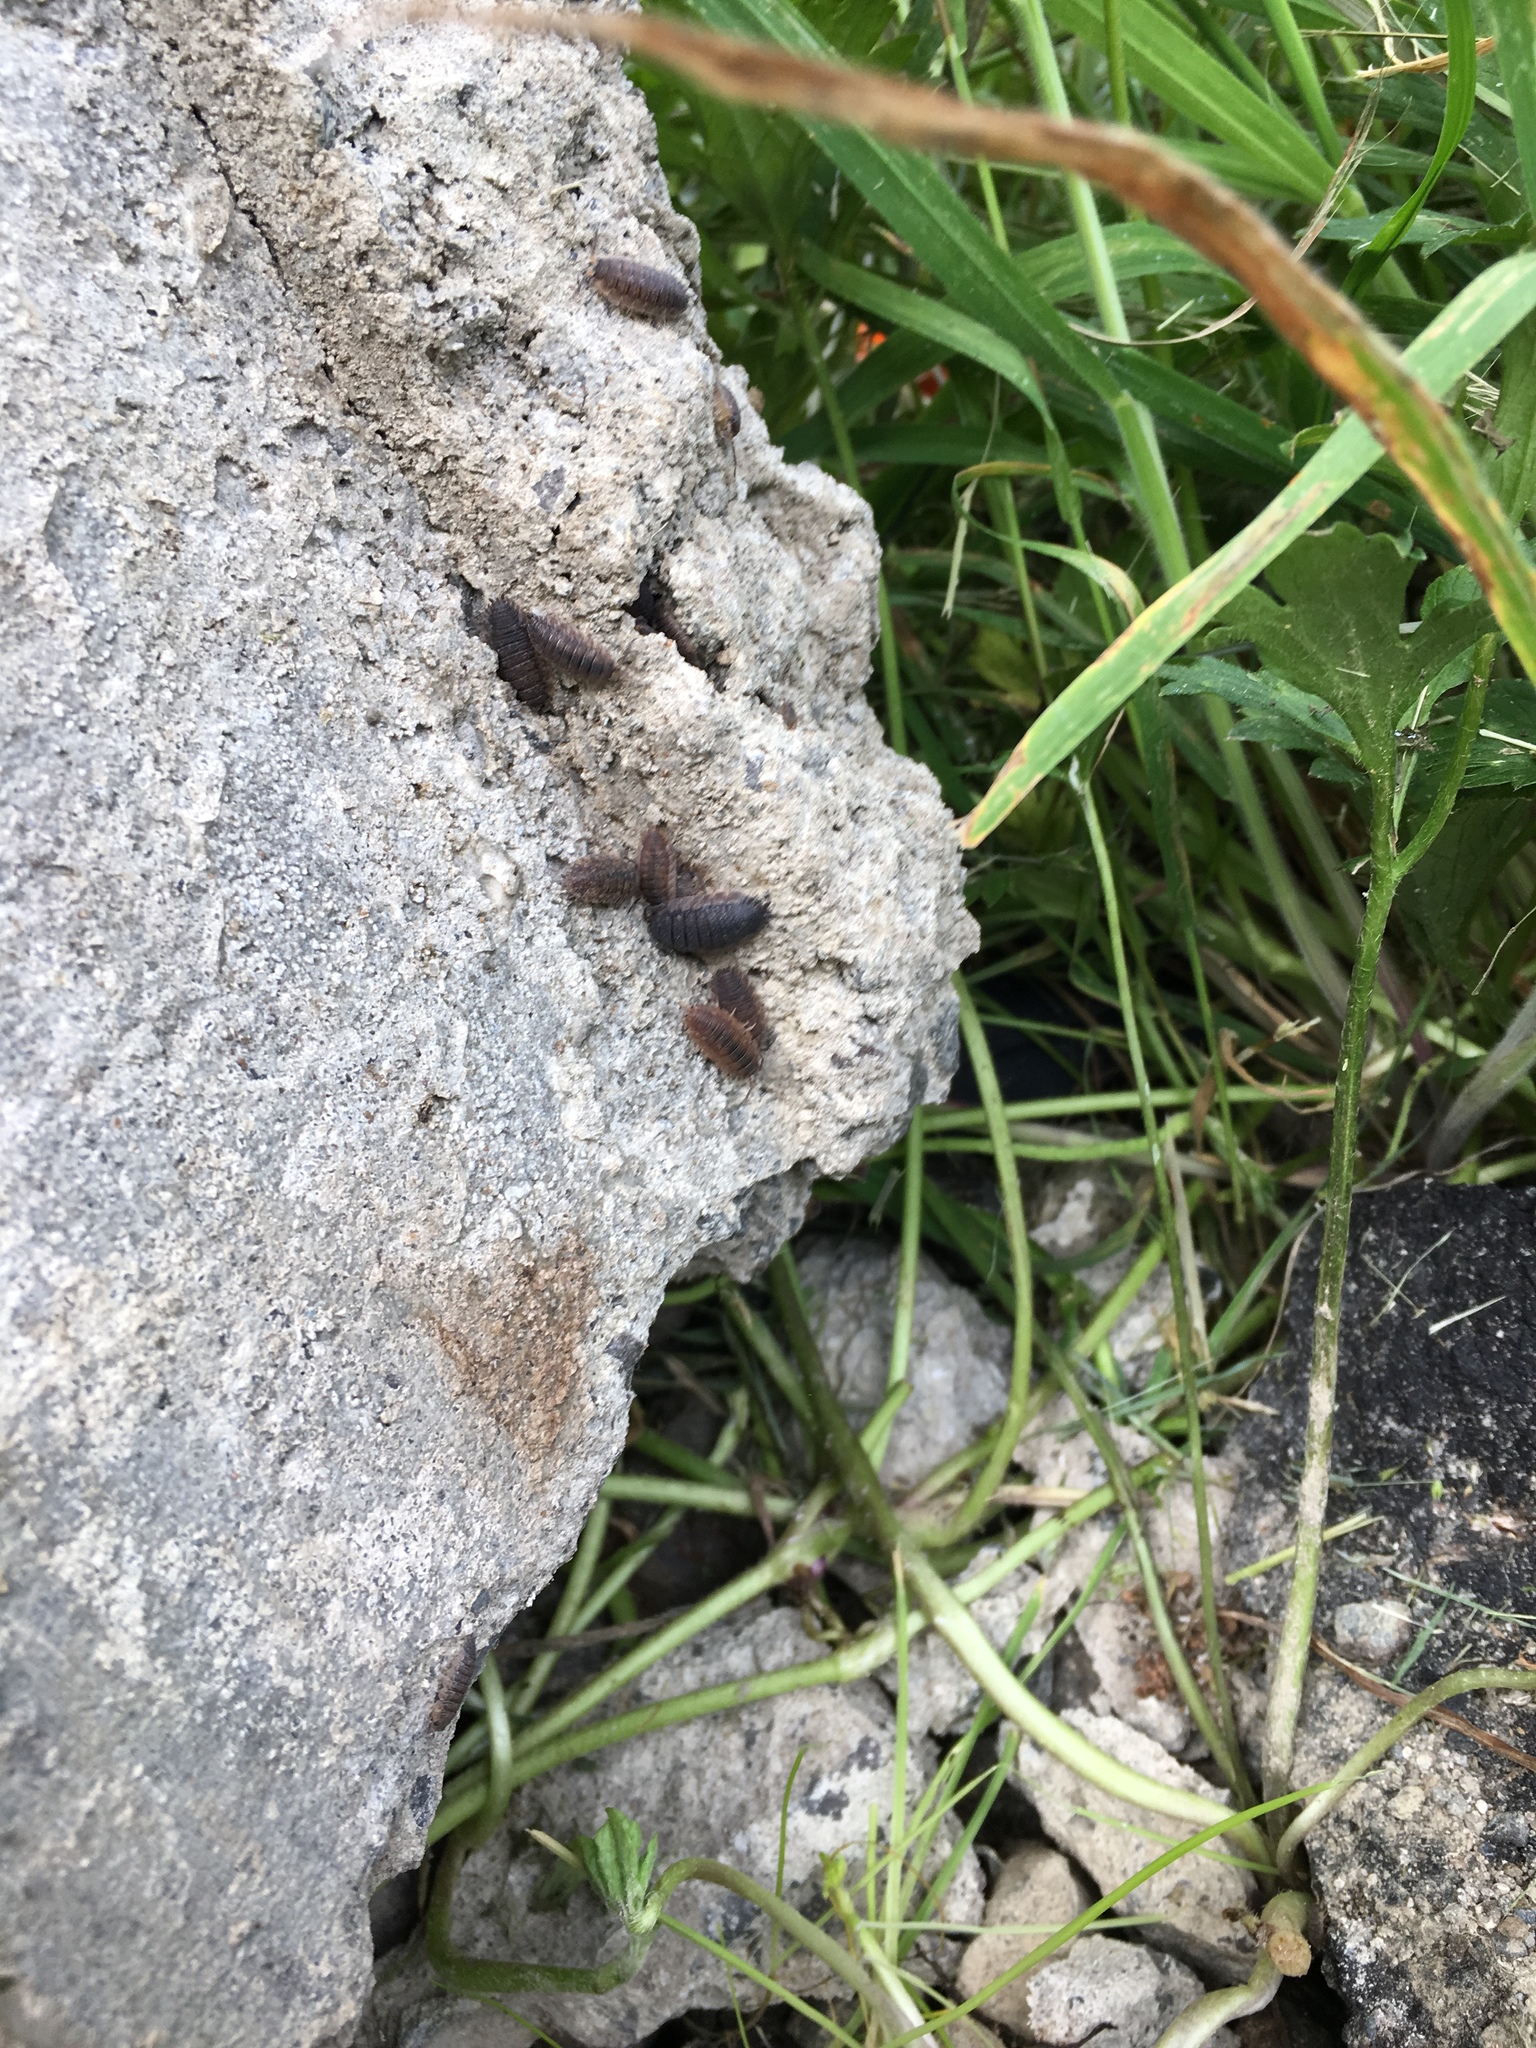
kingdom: Animalia
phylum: Arthropoda
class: Malacostraca
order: Isopoda
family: Porcellionidae
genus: Porcellio
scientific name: Porcellio scaber
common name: Common rough woodlouse
